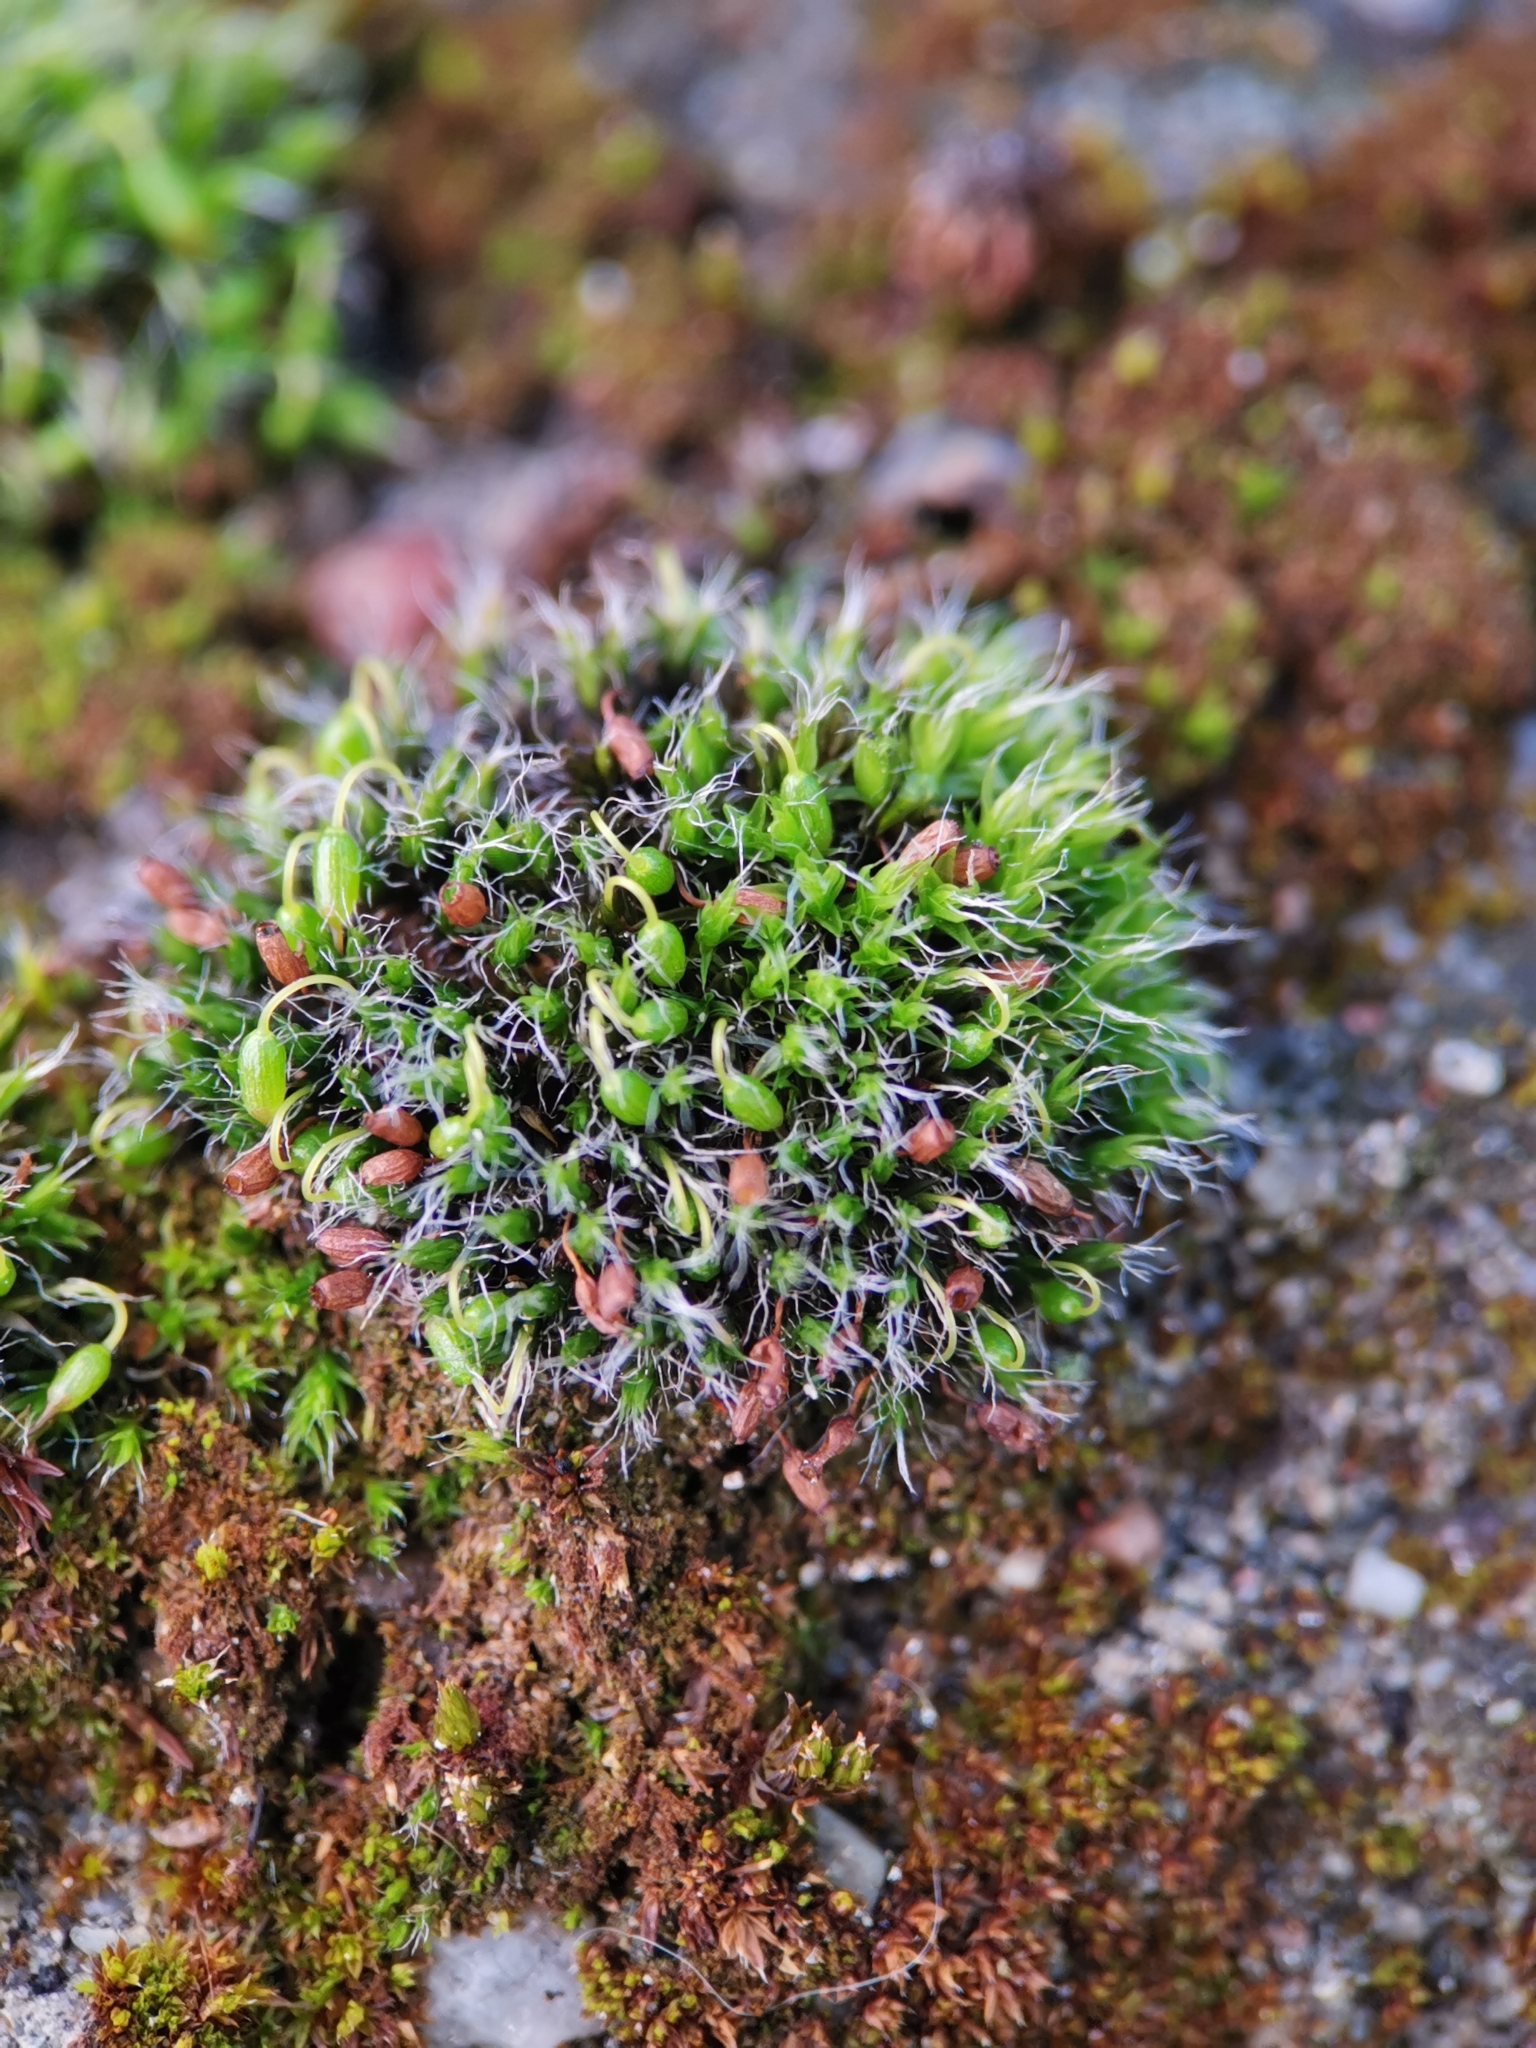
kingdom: Plantae
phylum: Bryophyta
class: Bryopsida
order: Grimmiales
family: Grimmiaceae
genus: Grimmia
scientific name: Grimmia pulvinata
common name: Grey-cushioned grimmia
